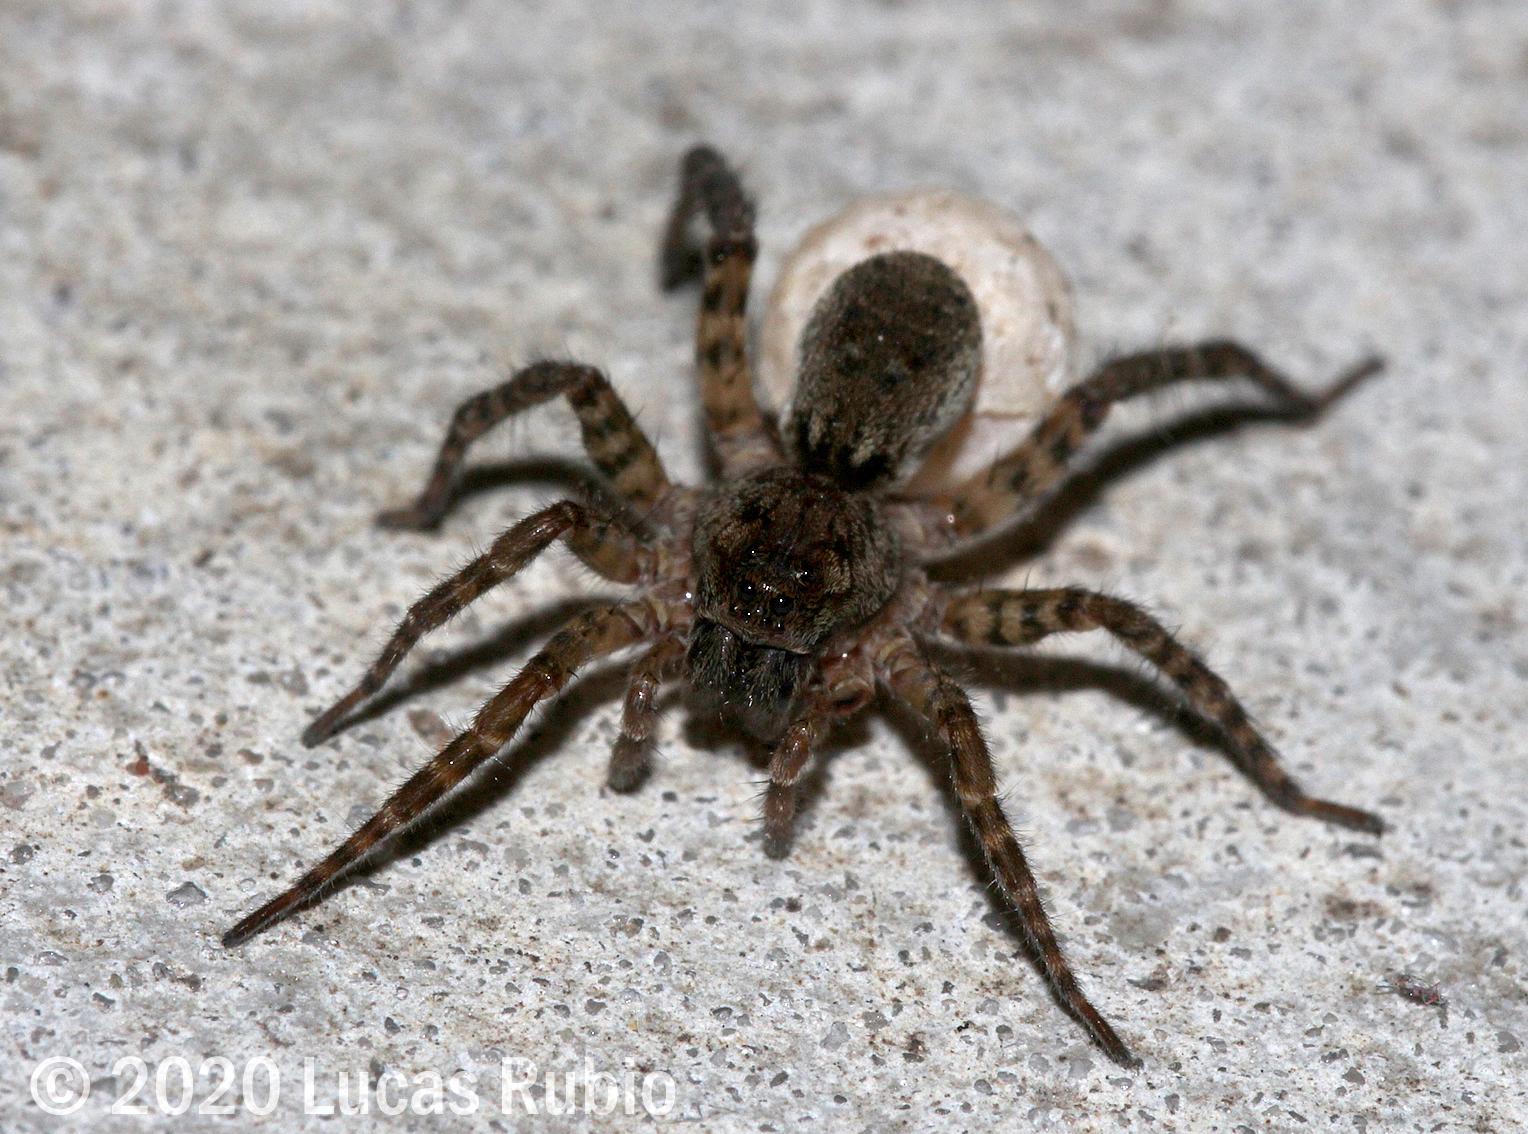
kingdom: Animalia
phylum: Arthropoda
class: Arachnida
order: Araneae
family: Lycosidae
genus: Paratrochosina
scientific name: Paratrochosina amica
